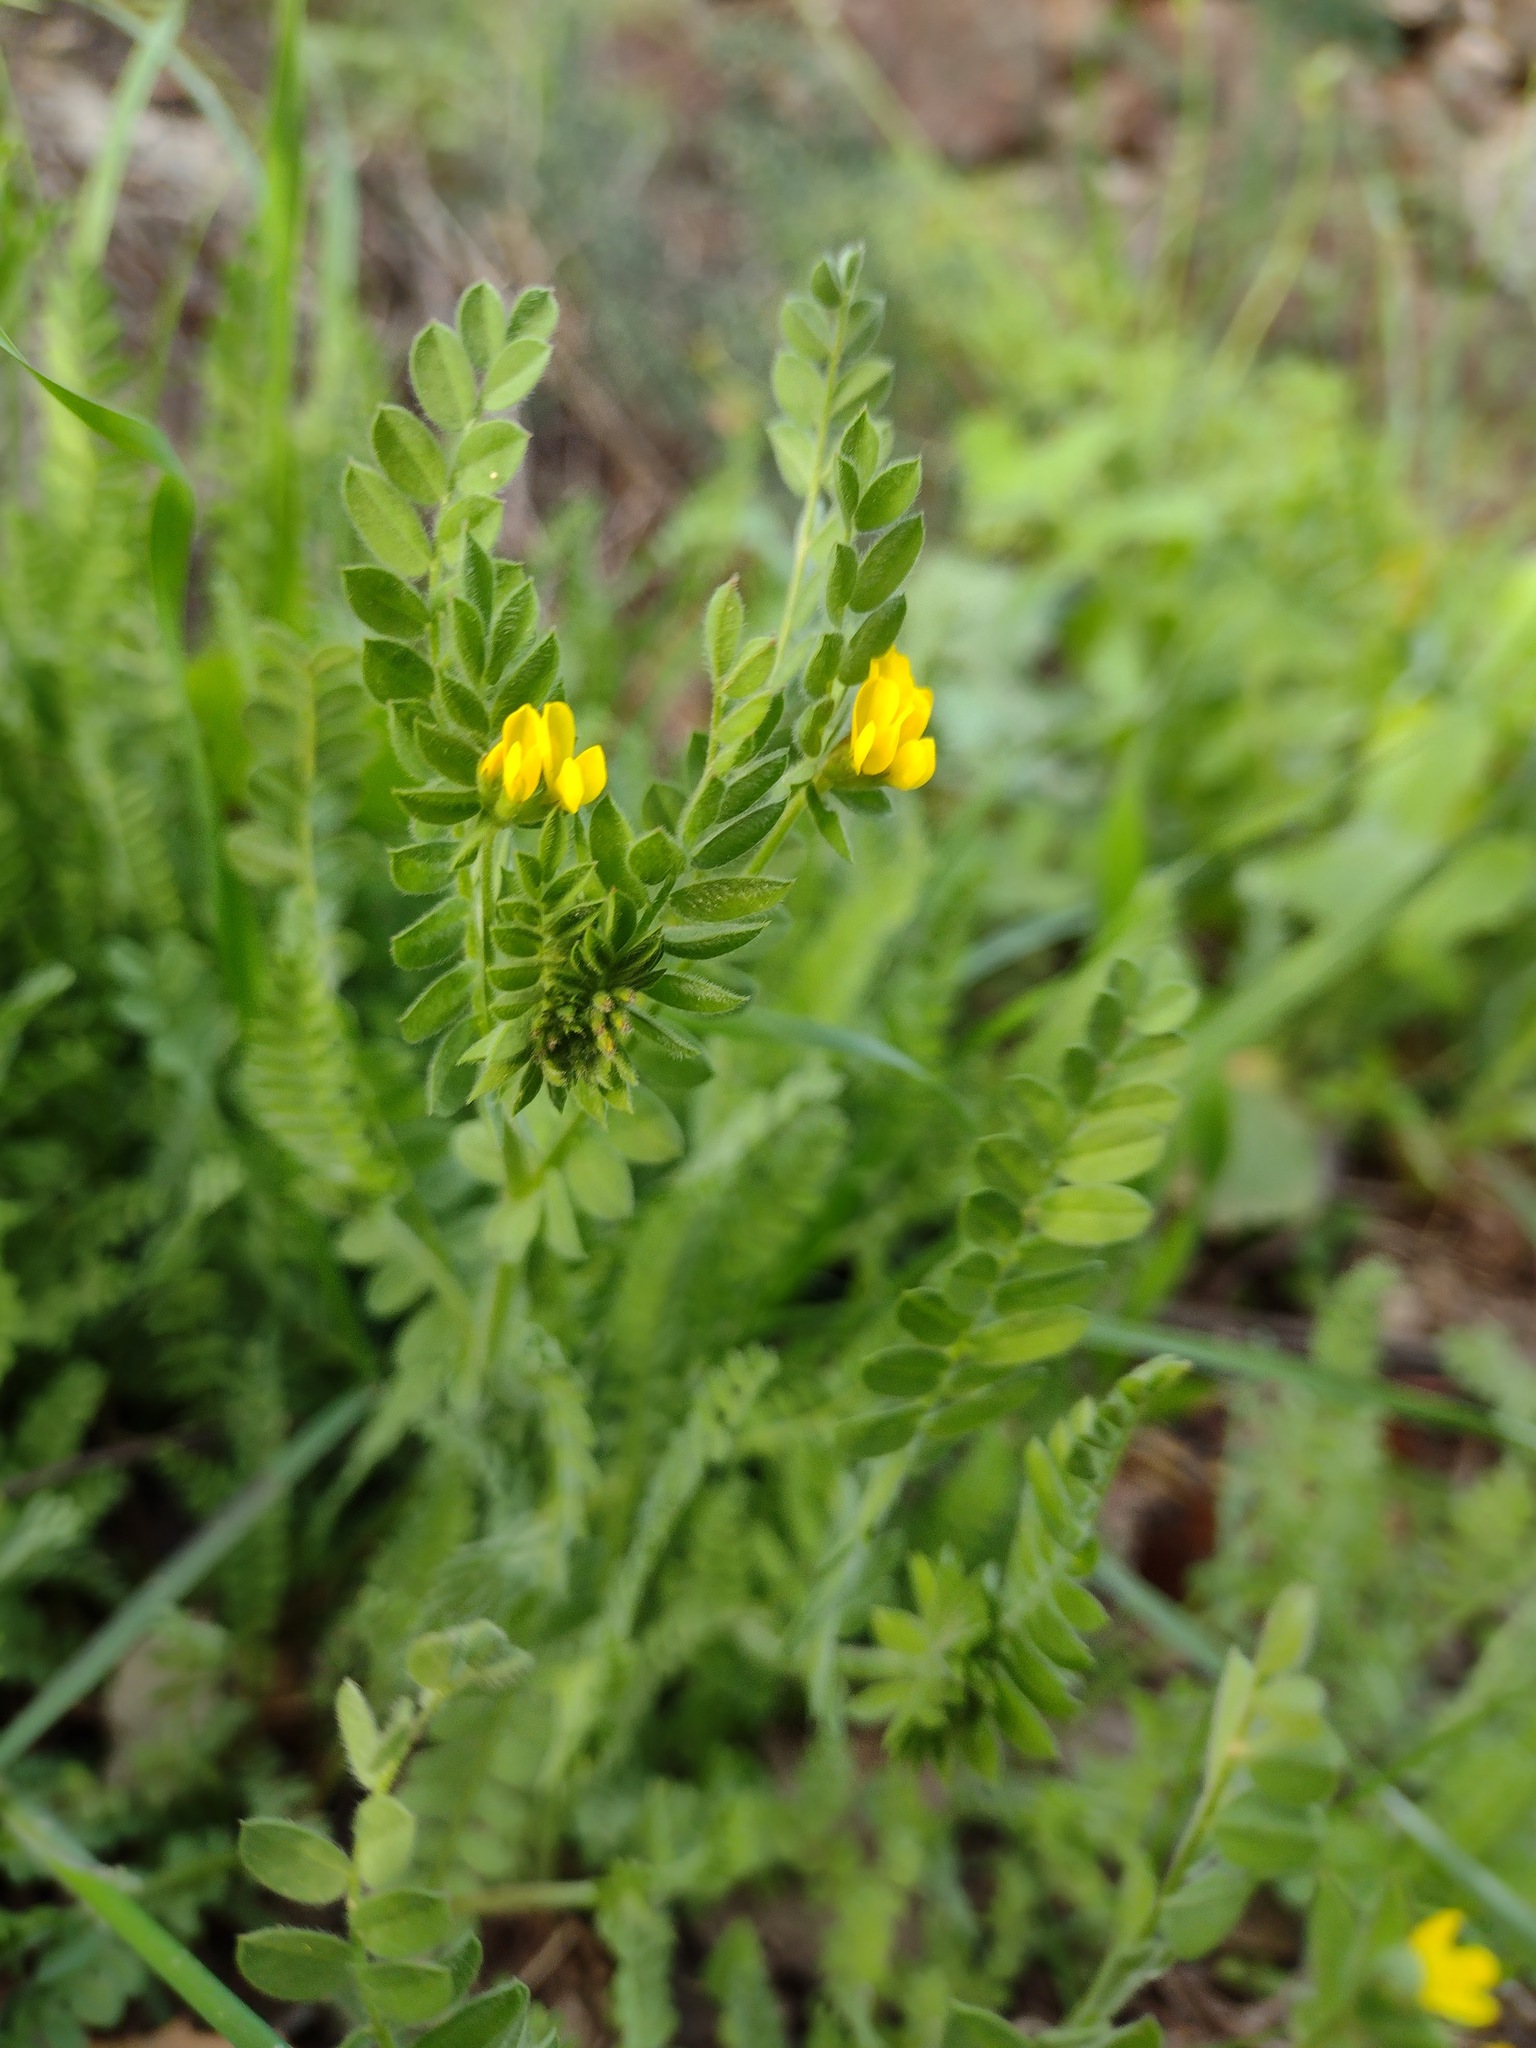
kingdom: Plantae
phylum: Tracheophyta
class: Magnoliopsida
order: Fabales
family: Fabaceae
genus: Ornithopus
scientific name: Ornithopus compressus
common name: Yellow serradella
